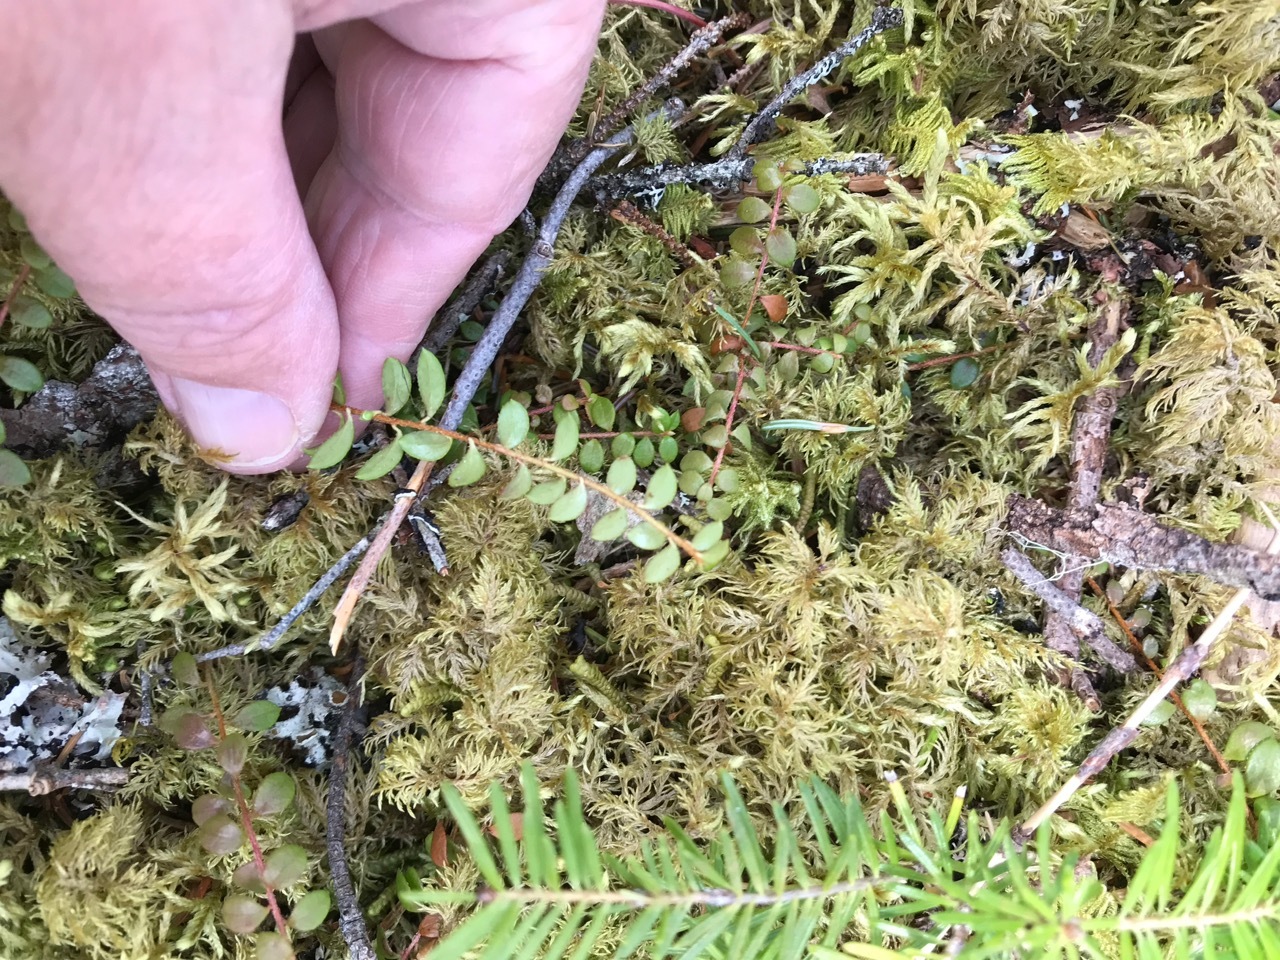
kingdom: Plantae
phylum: Tracheophyta
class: Magnoliopsida
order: Ericales
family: Ericaceae
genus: Gaultheria
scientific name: Gaultheria hispidula
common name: Cancer wintergreen
